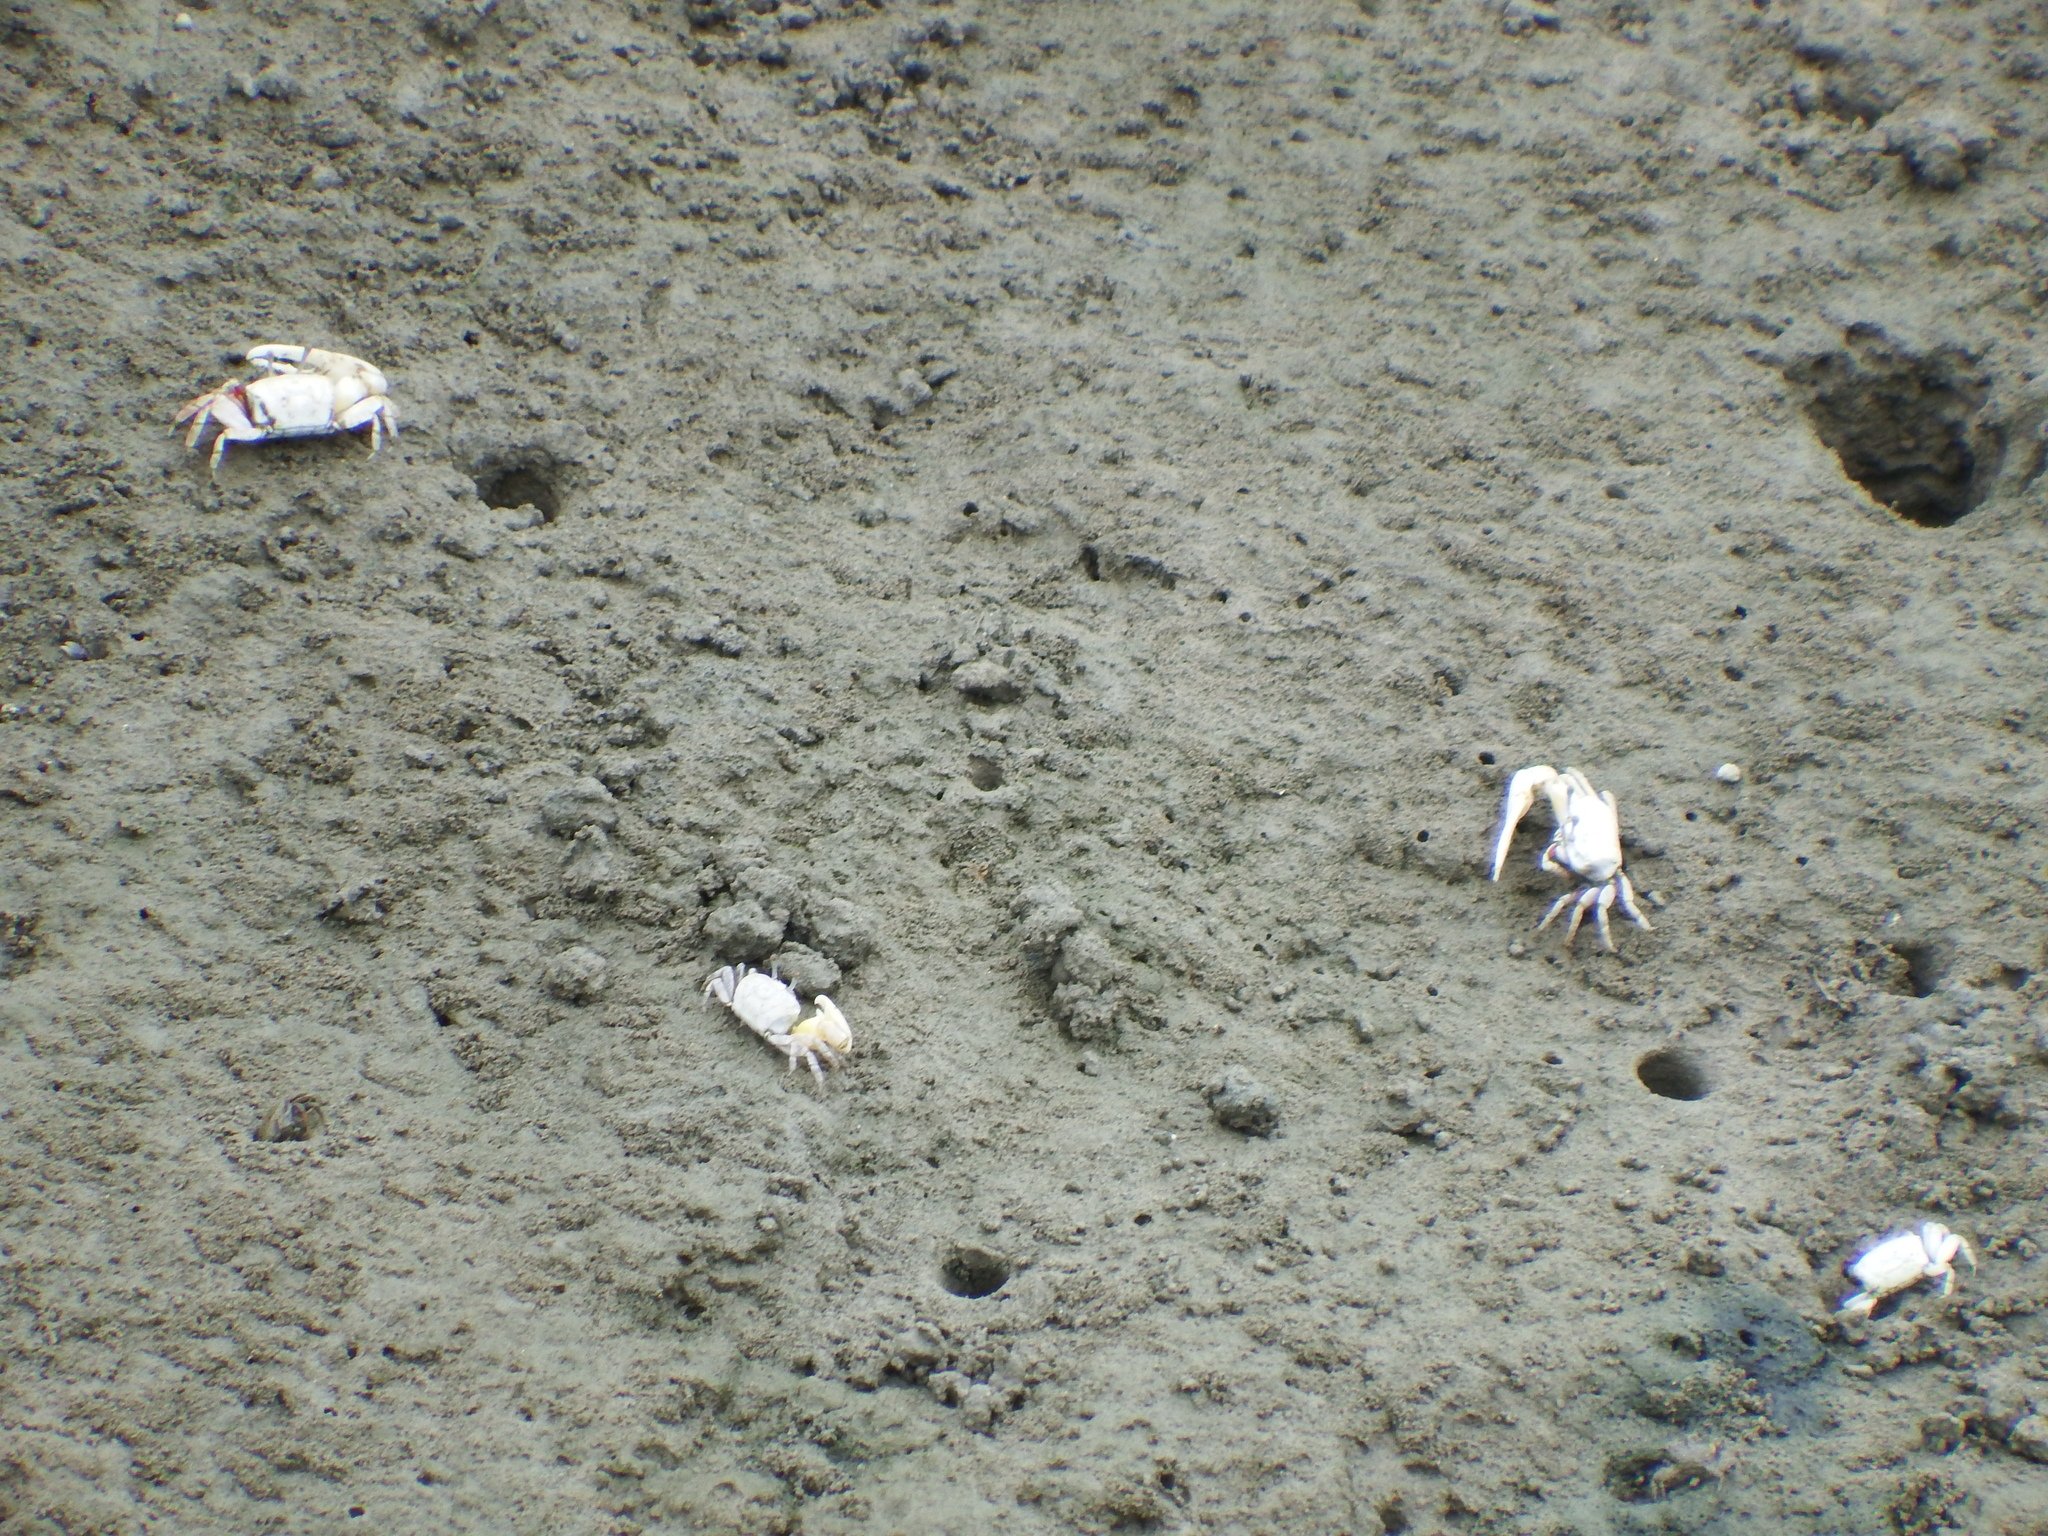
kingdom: Animalia
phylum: Arthropoda
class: Malacostraca
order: Decapoda
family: Ocypodidae
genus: Austruca
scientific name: Austruca lactea
